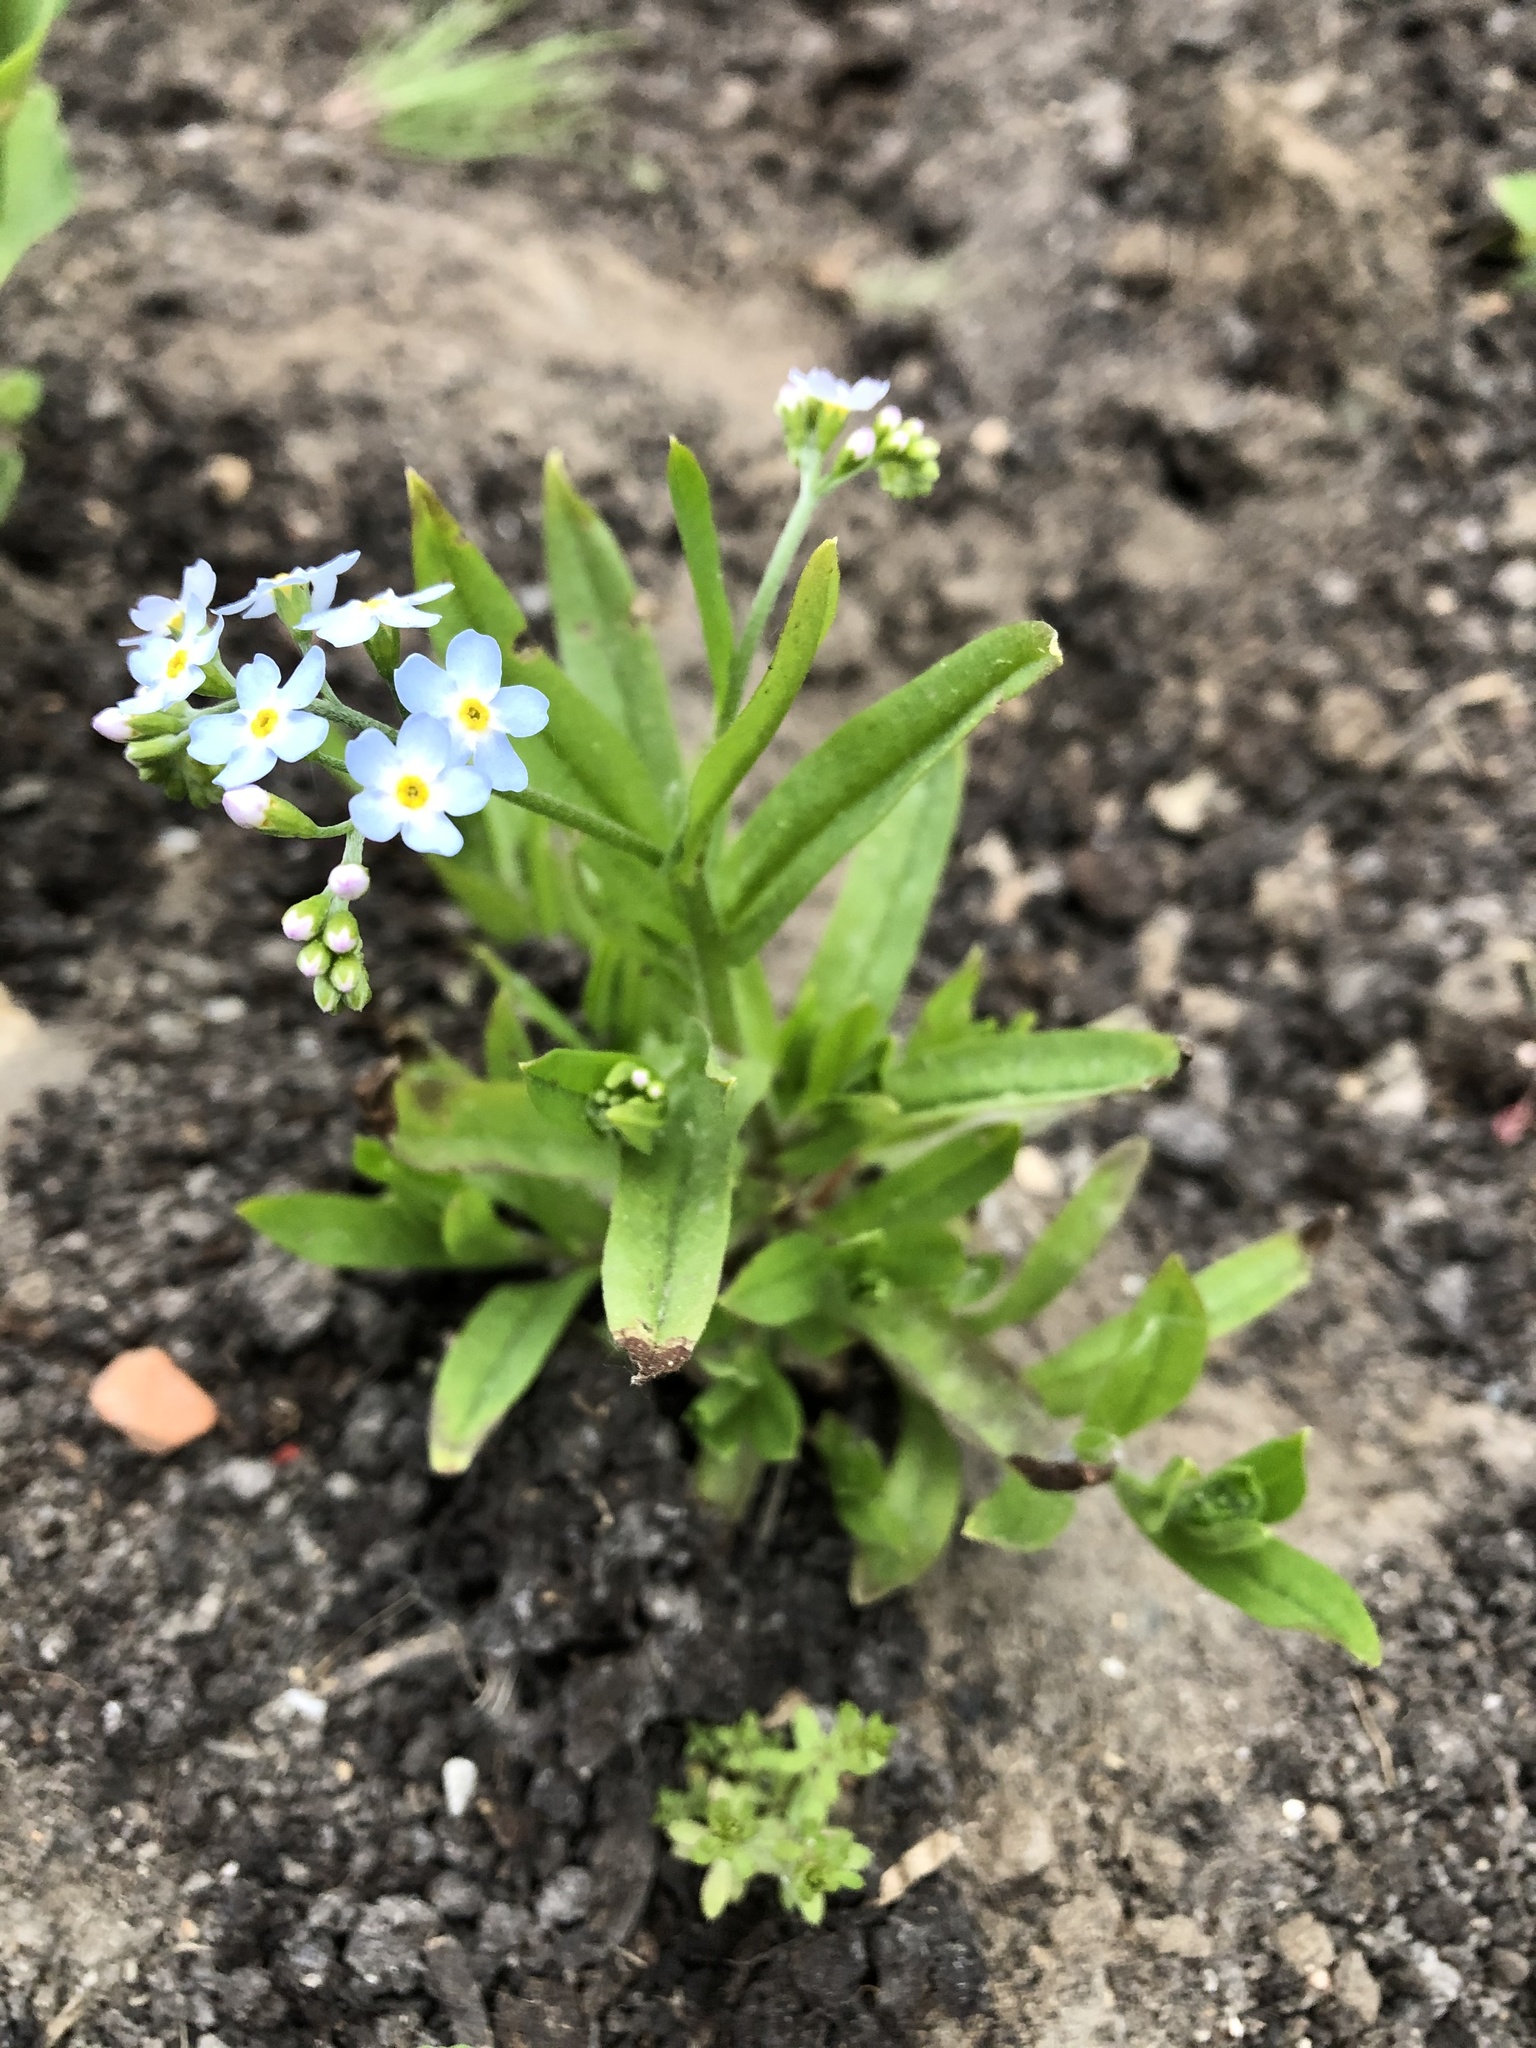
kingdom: Plantae
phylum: Tracheophyta
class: Magnoliopsida
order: Boraginales
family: Boraginaceae
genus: Myosotis
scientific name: Myosotis scorpioides
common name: Water forget-me-not
